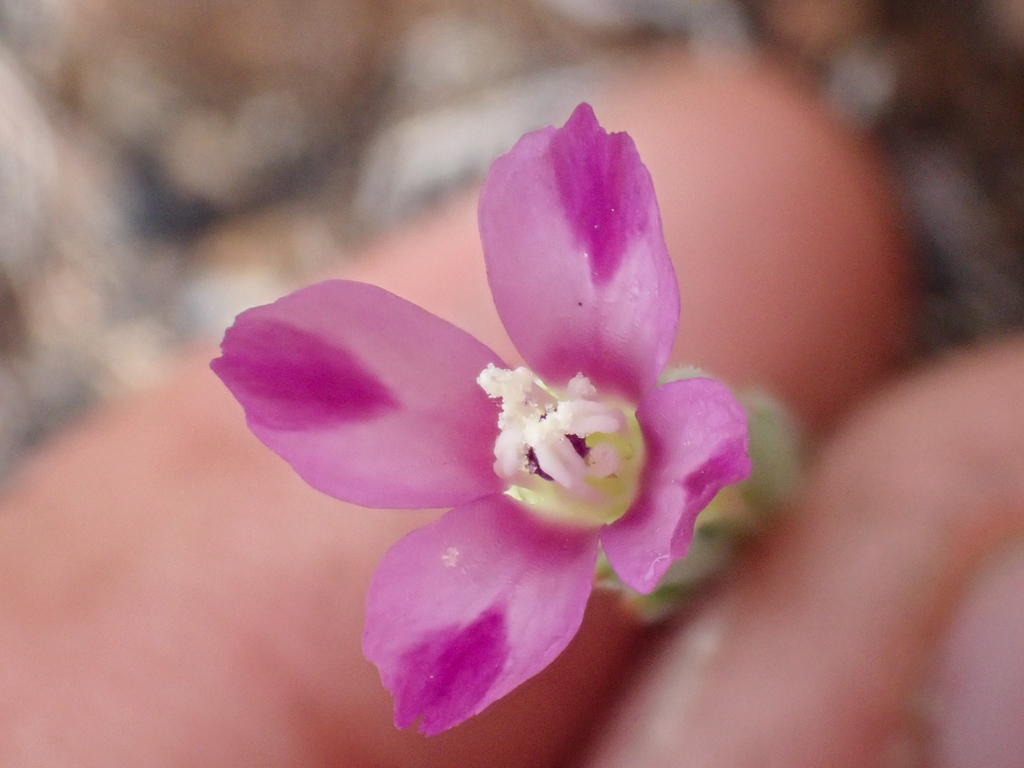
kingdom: Plantae
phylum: Tracheophyta
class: Magnoliopsida
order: Myrtales
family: Onagraceae
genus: Clarkia
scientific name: Clarkia purpurea
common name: Purple clarkia
